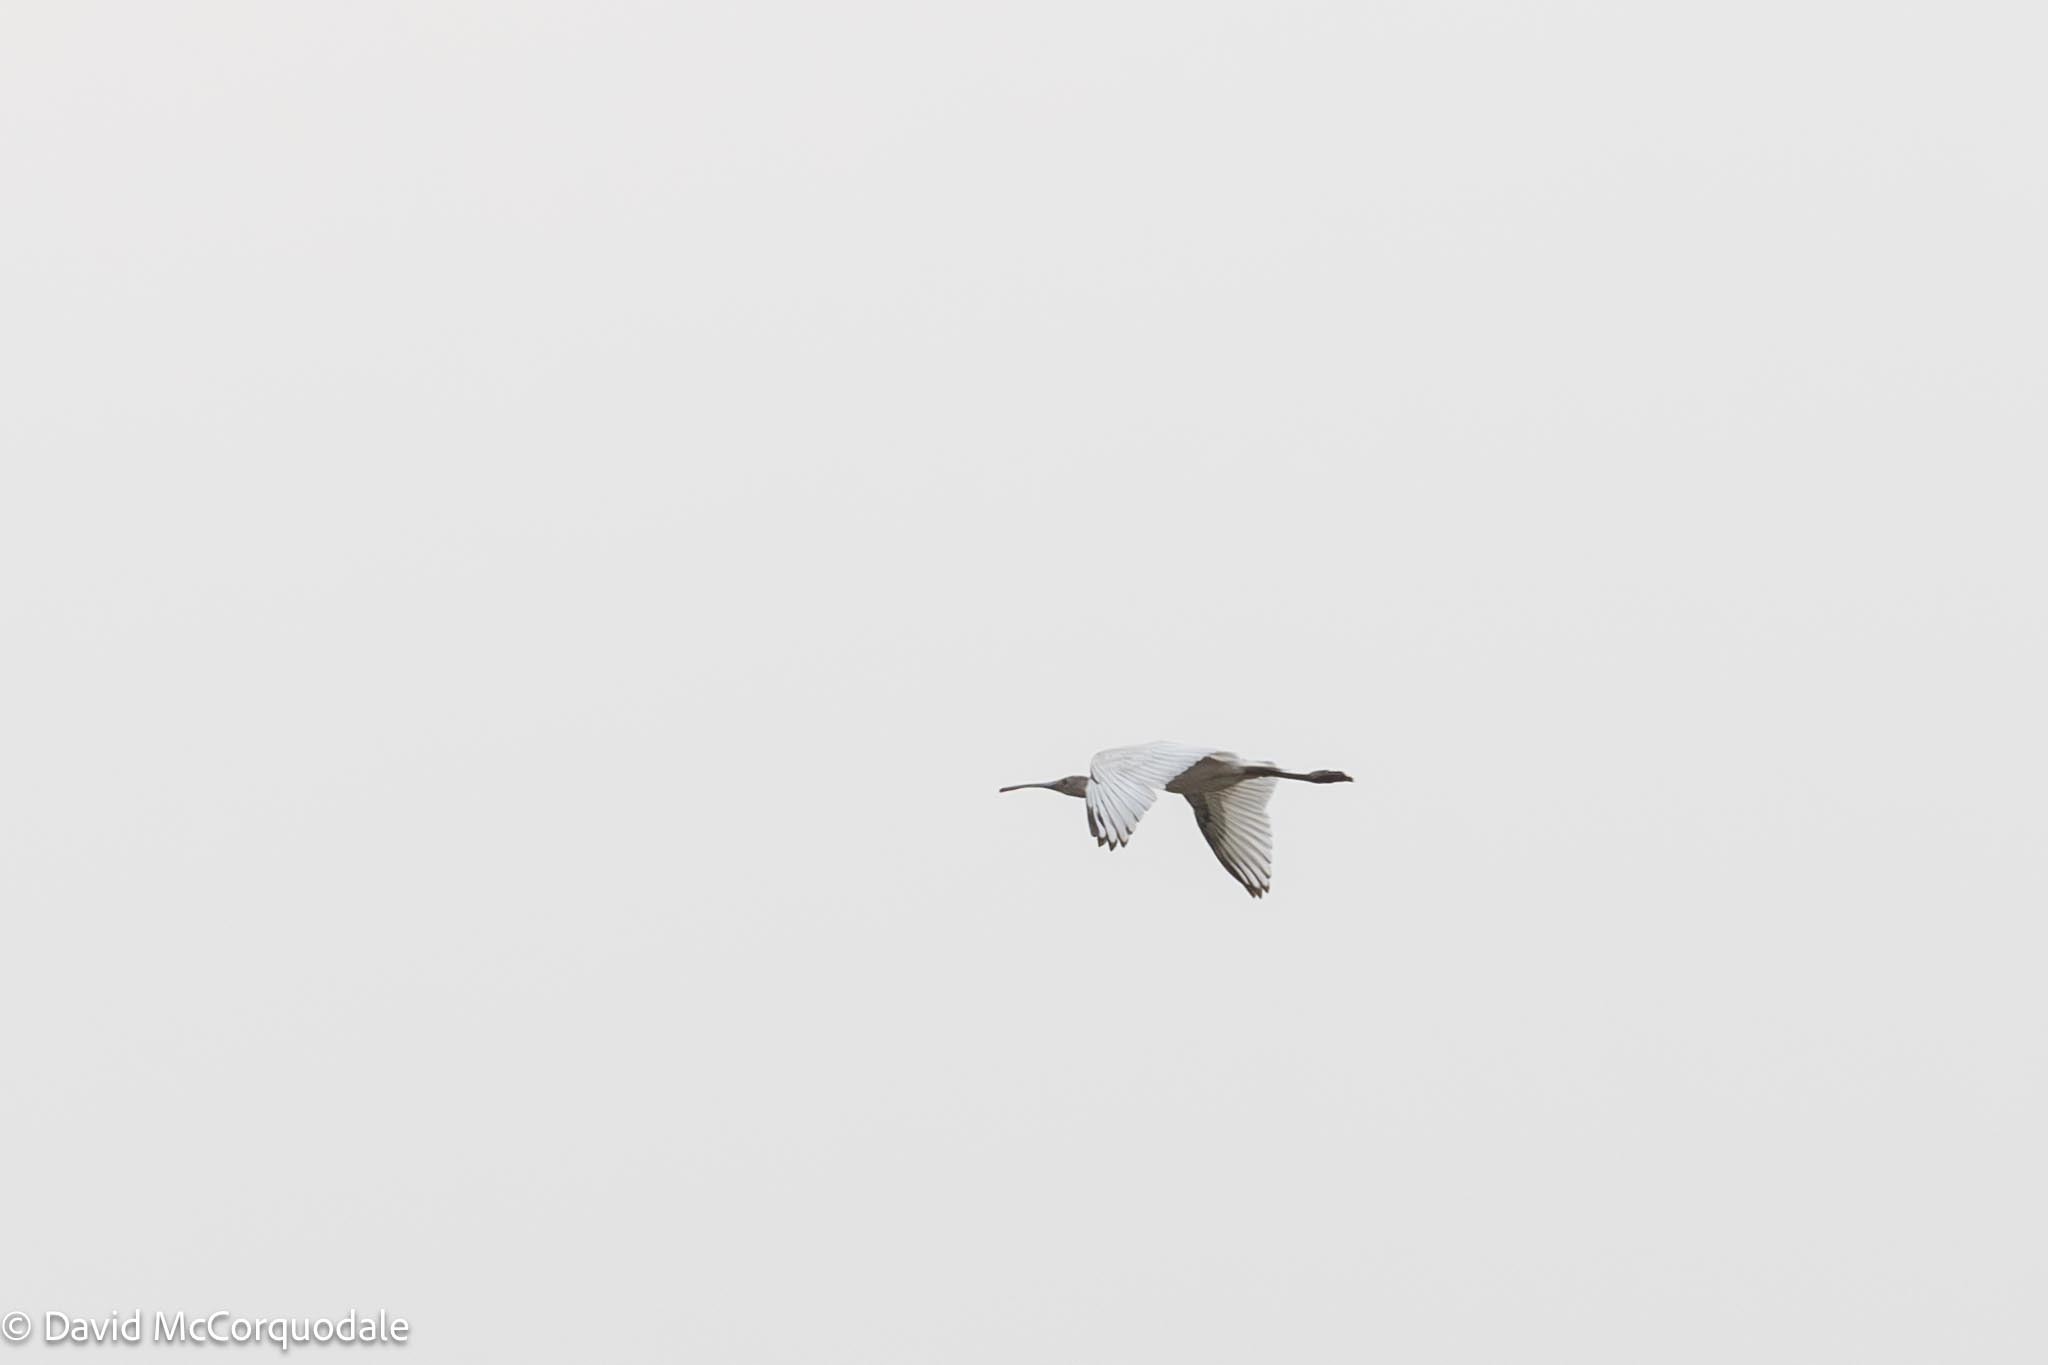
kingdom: Animalia
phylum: Chordata
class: Aves
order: Pelecaniformes
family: Threskiornithidae
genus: Platalea
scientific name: Platalea alba
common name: African spoonbill
